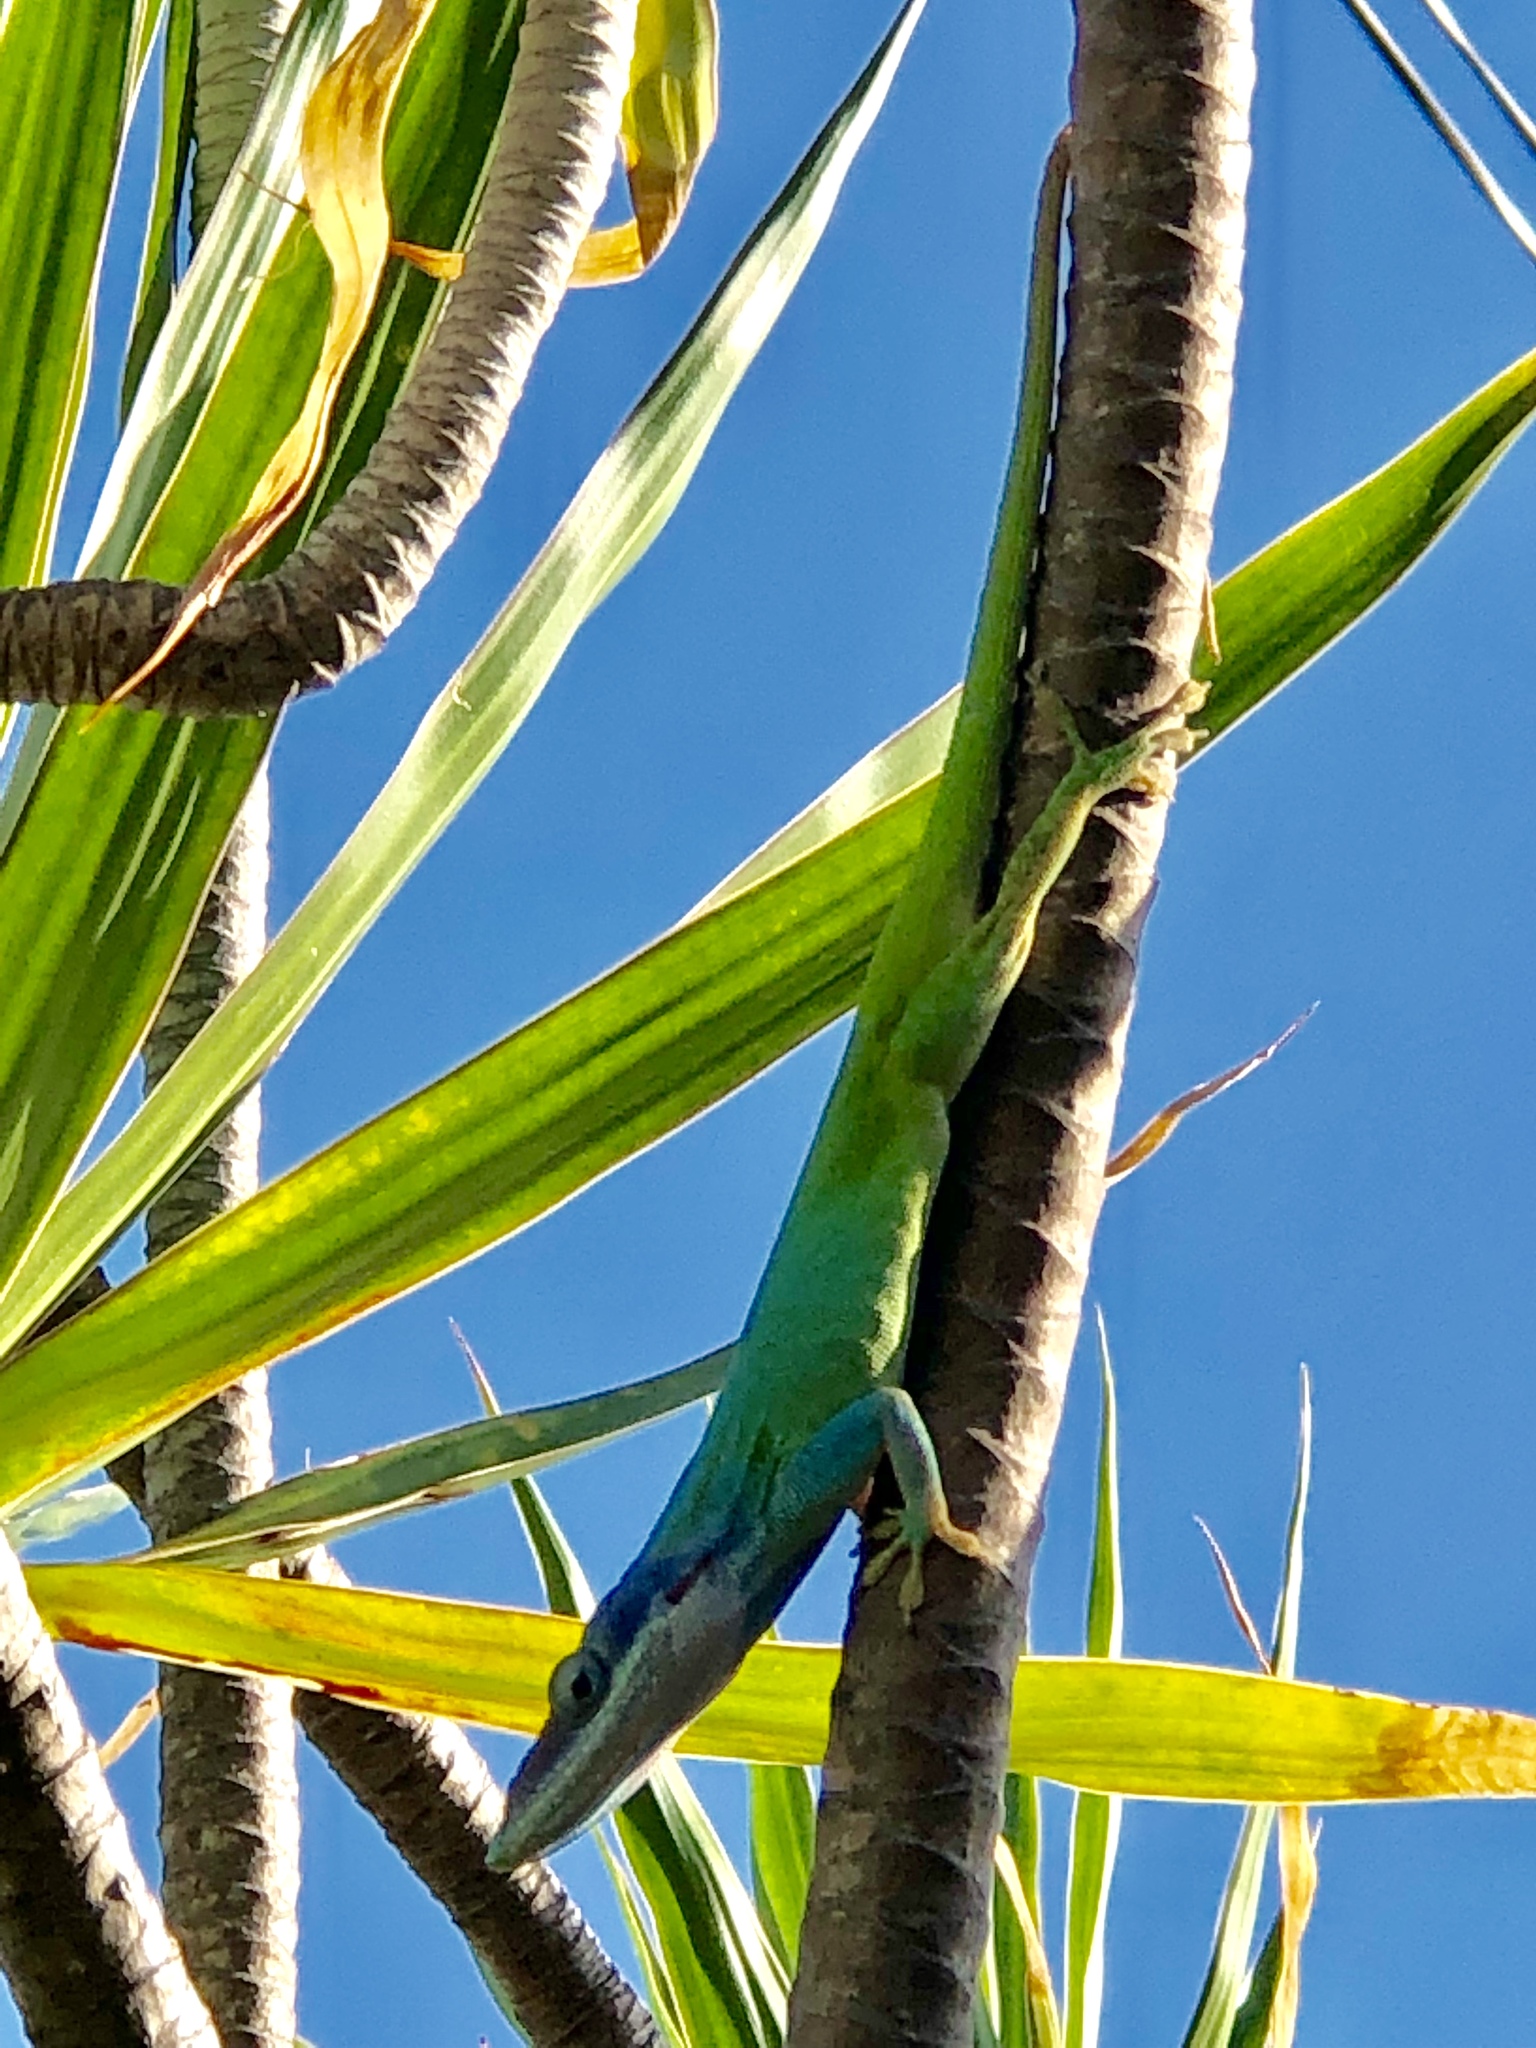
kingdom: Animalia
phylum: Chordata
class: Squamata
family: Dactyloidae
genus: Anolis
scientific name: Anolis allisoni
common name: Allison's anole
